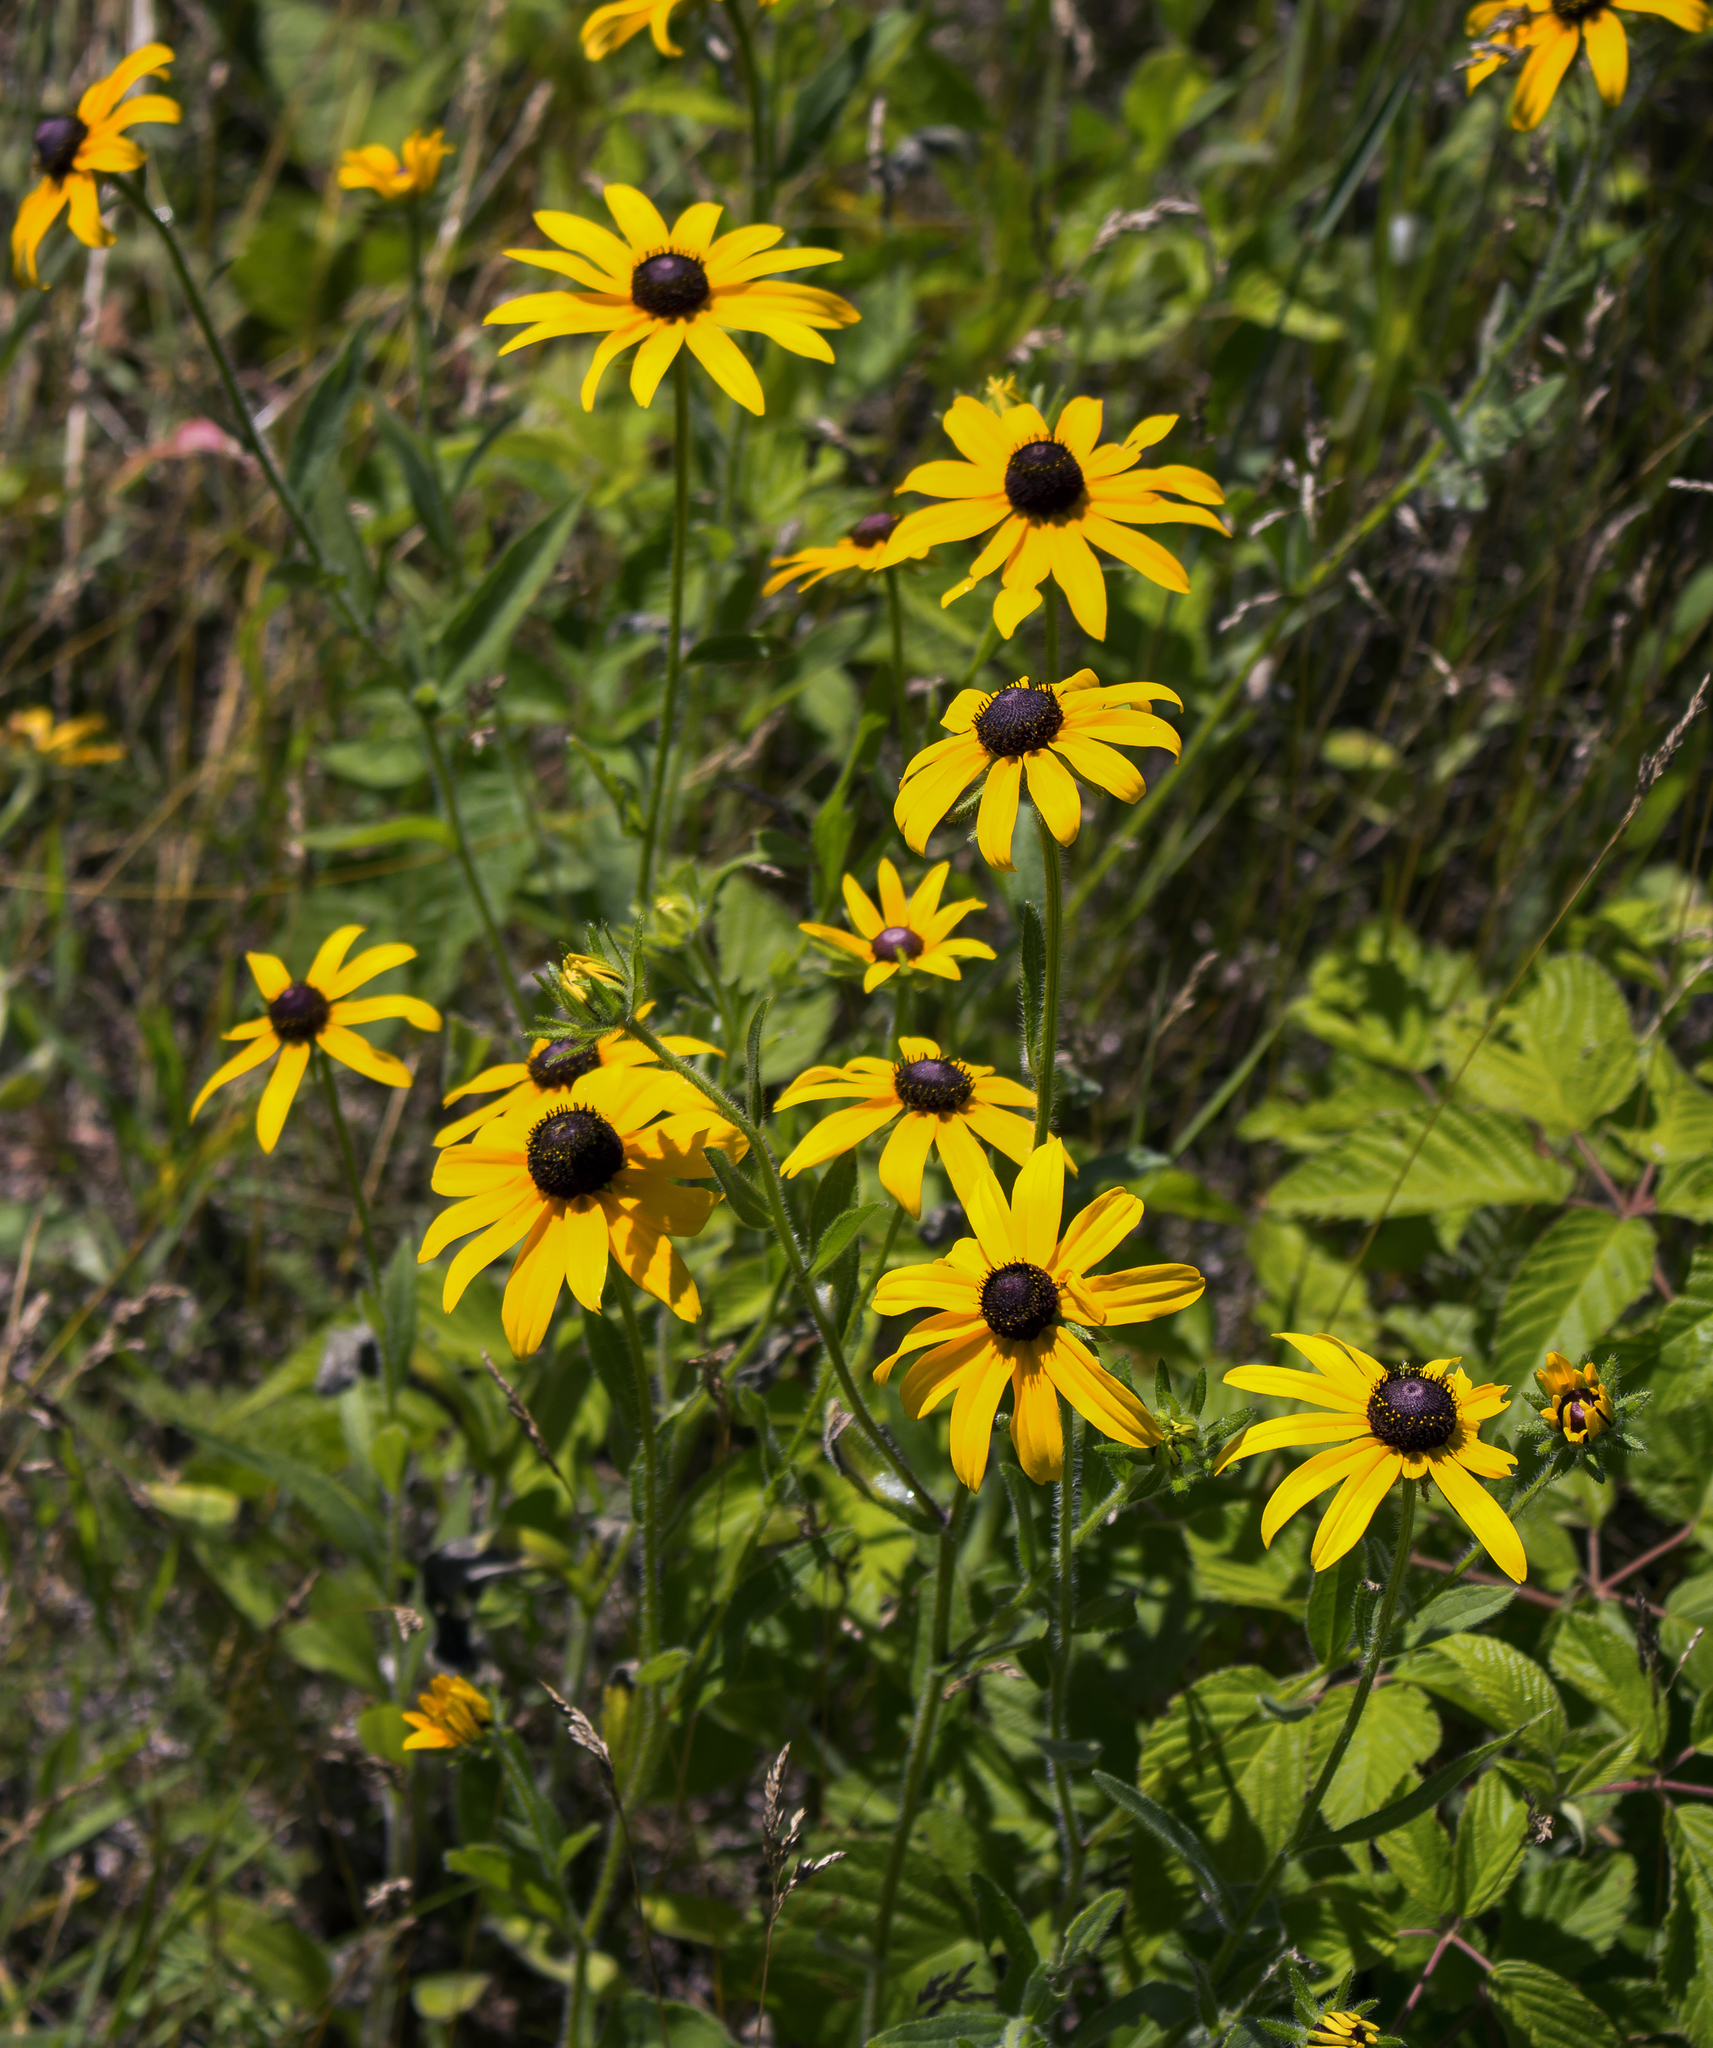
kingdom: Plantae
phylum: Tracheophyta
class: Magnoliopsida
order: Asterales
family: Asteraceae
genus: Rudbeckia
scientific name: Rudbeckia hirta
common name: Black-eyed-susan
